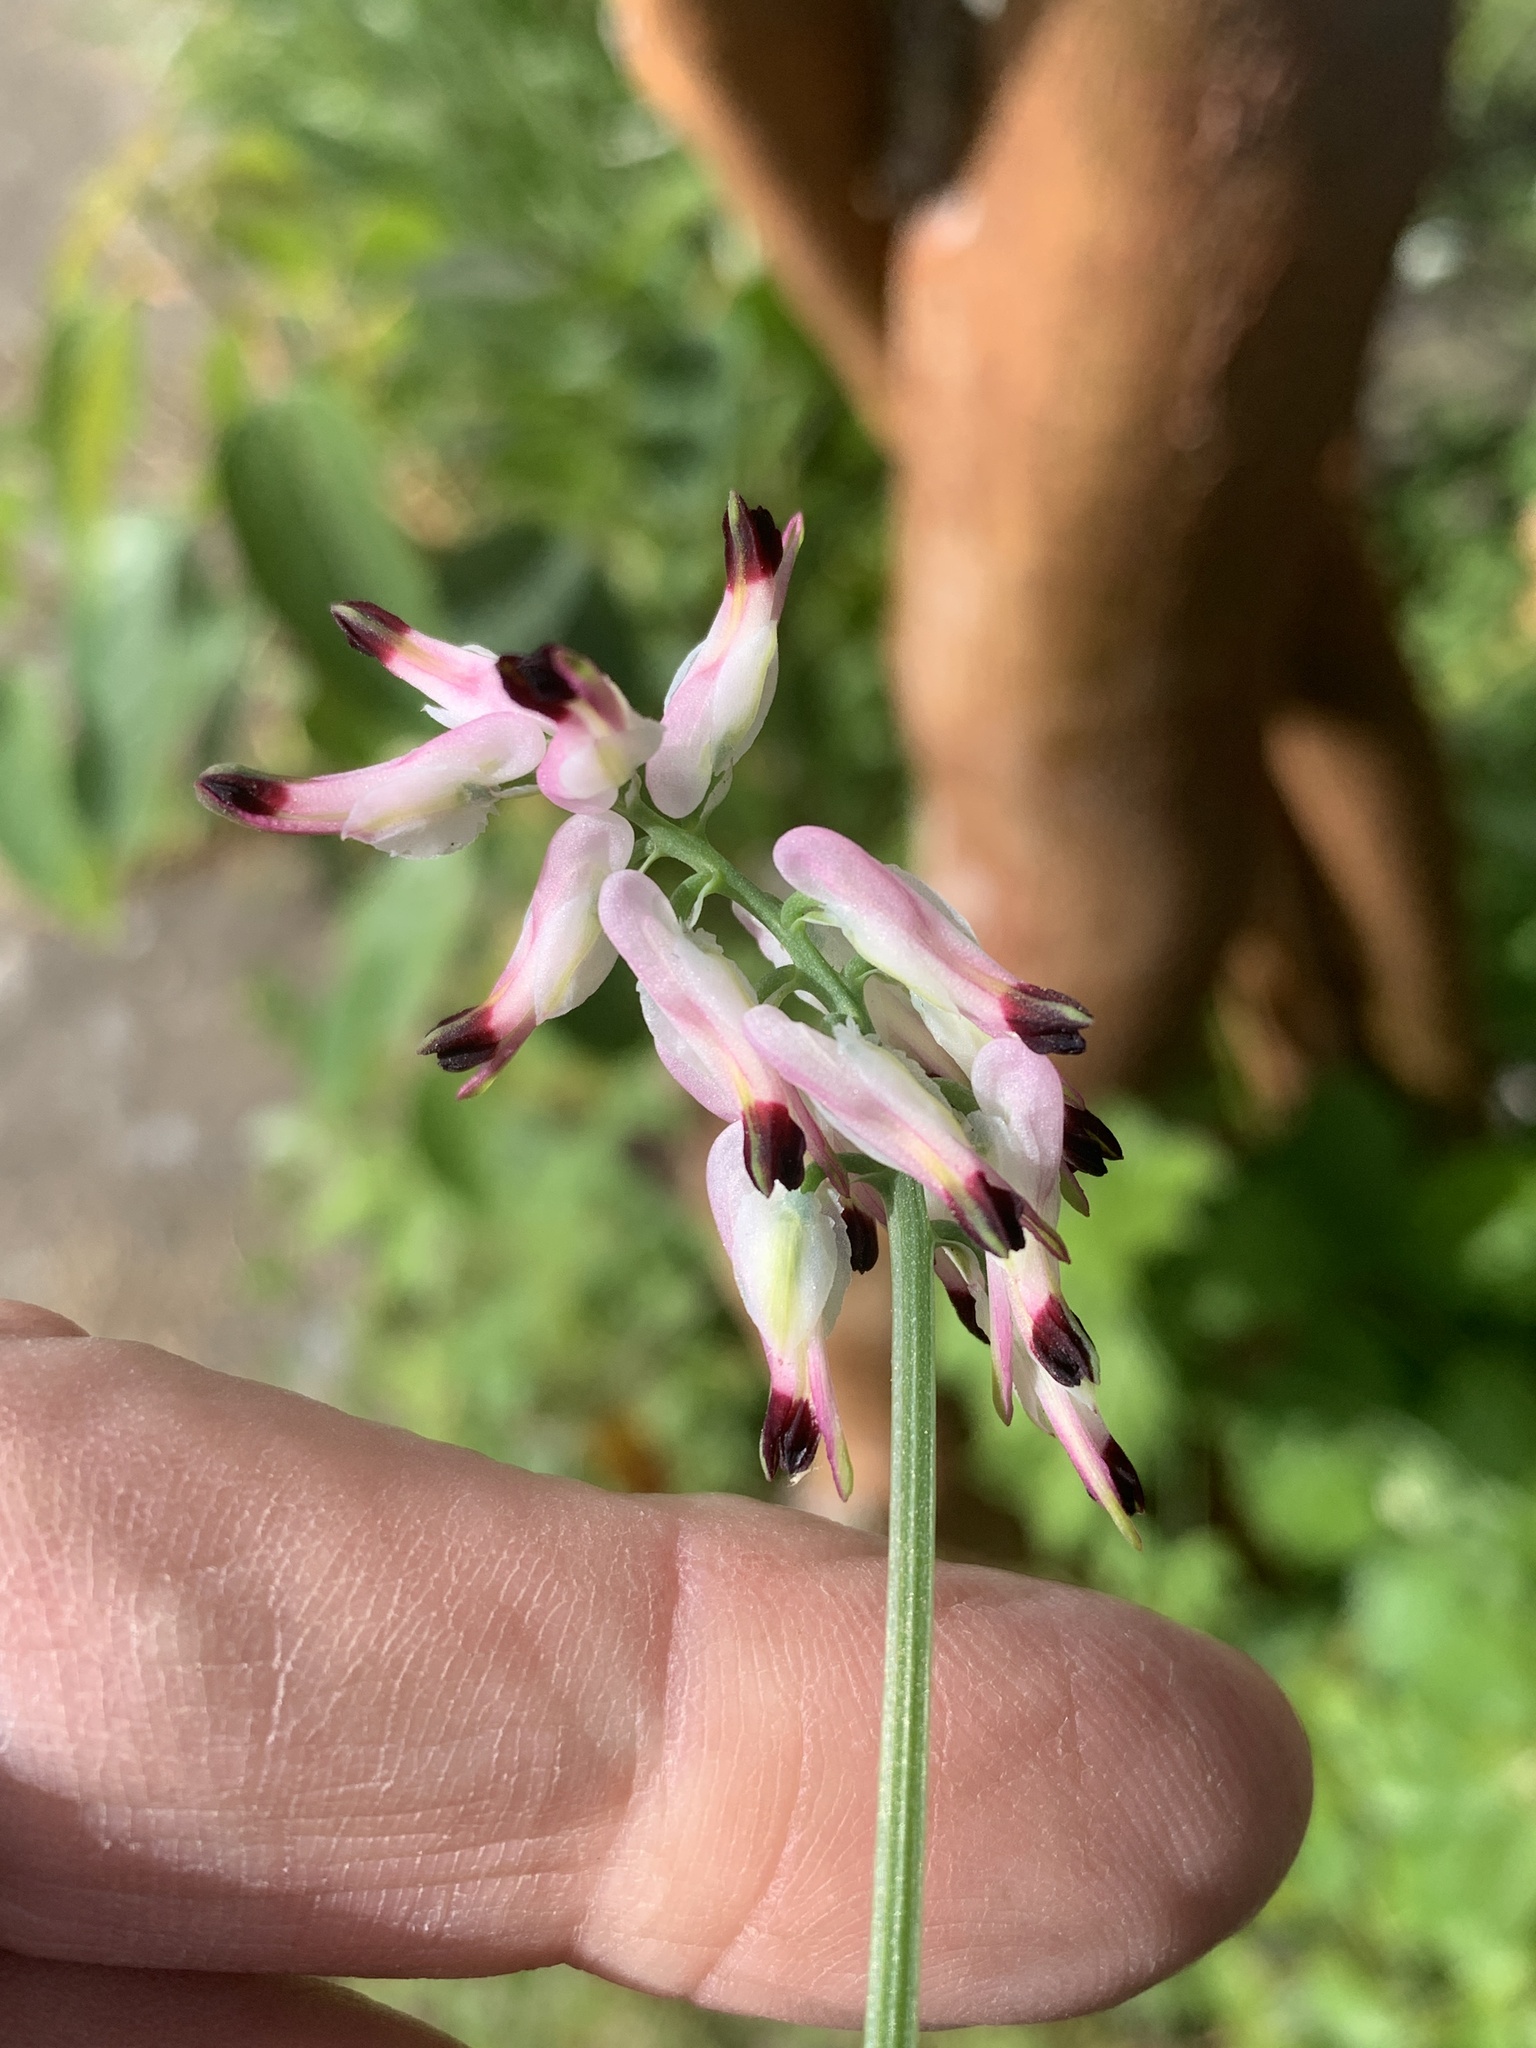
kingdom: Plantae
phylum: Tracheophyta
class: Magnoliopsida
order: Ranunculales
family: Papaveraceae
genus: Fumaria
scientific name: Fumaria capreolata
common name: White ramping-fumitory
